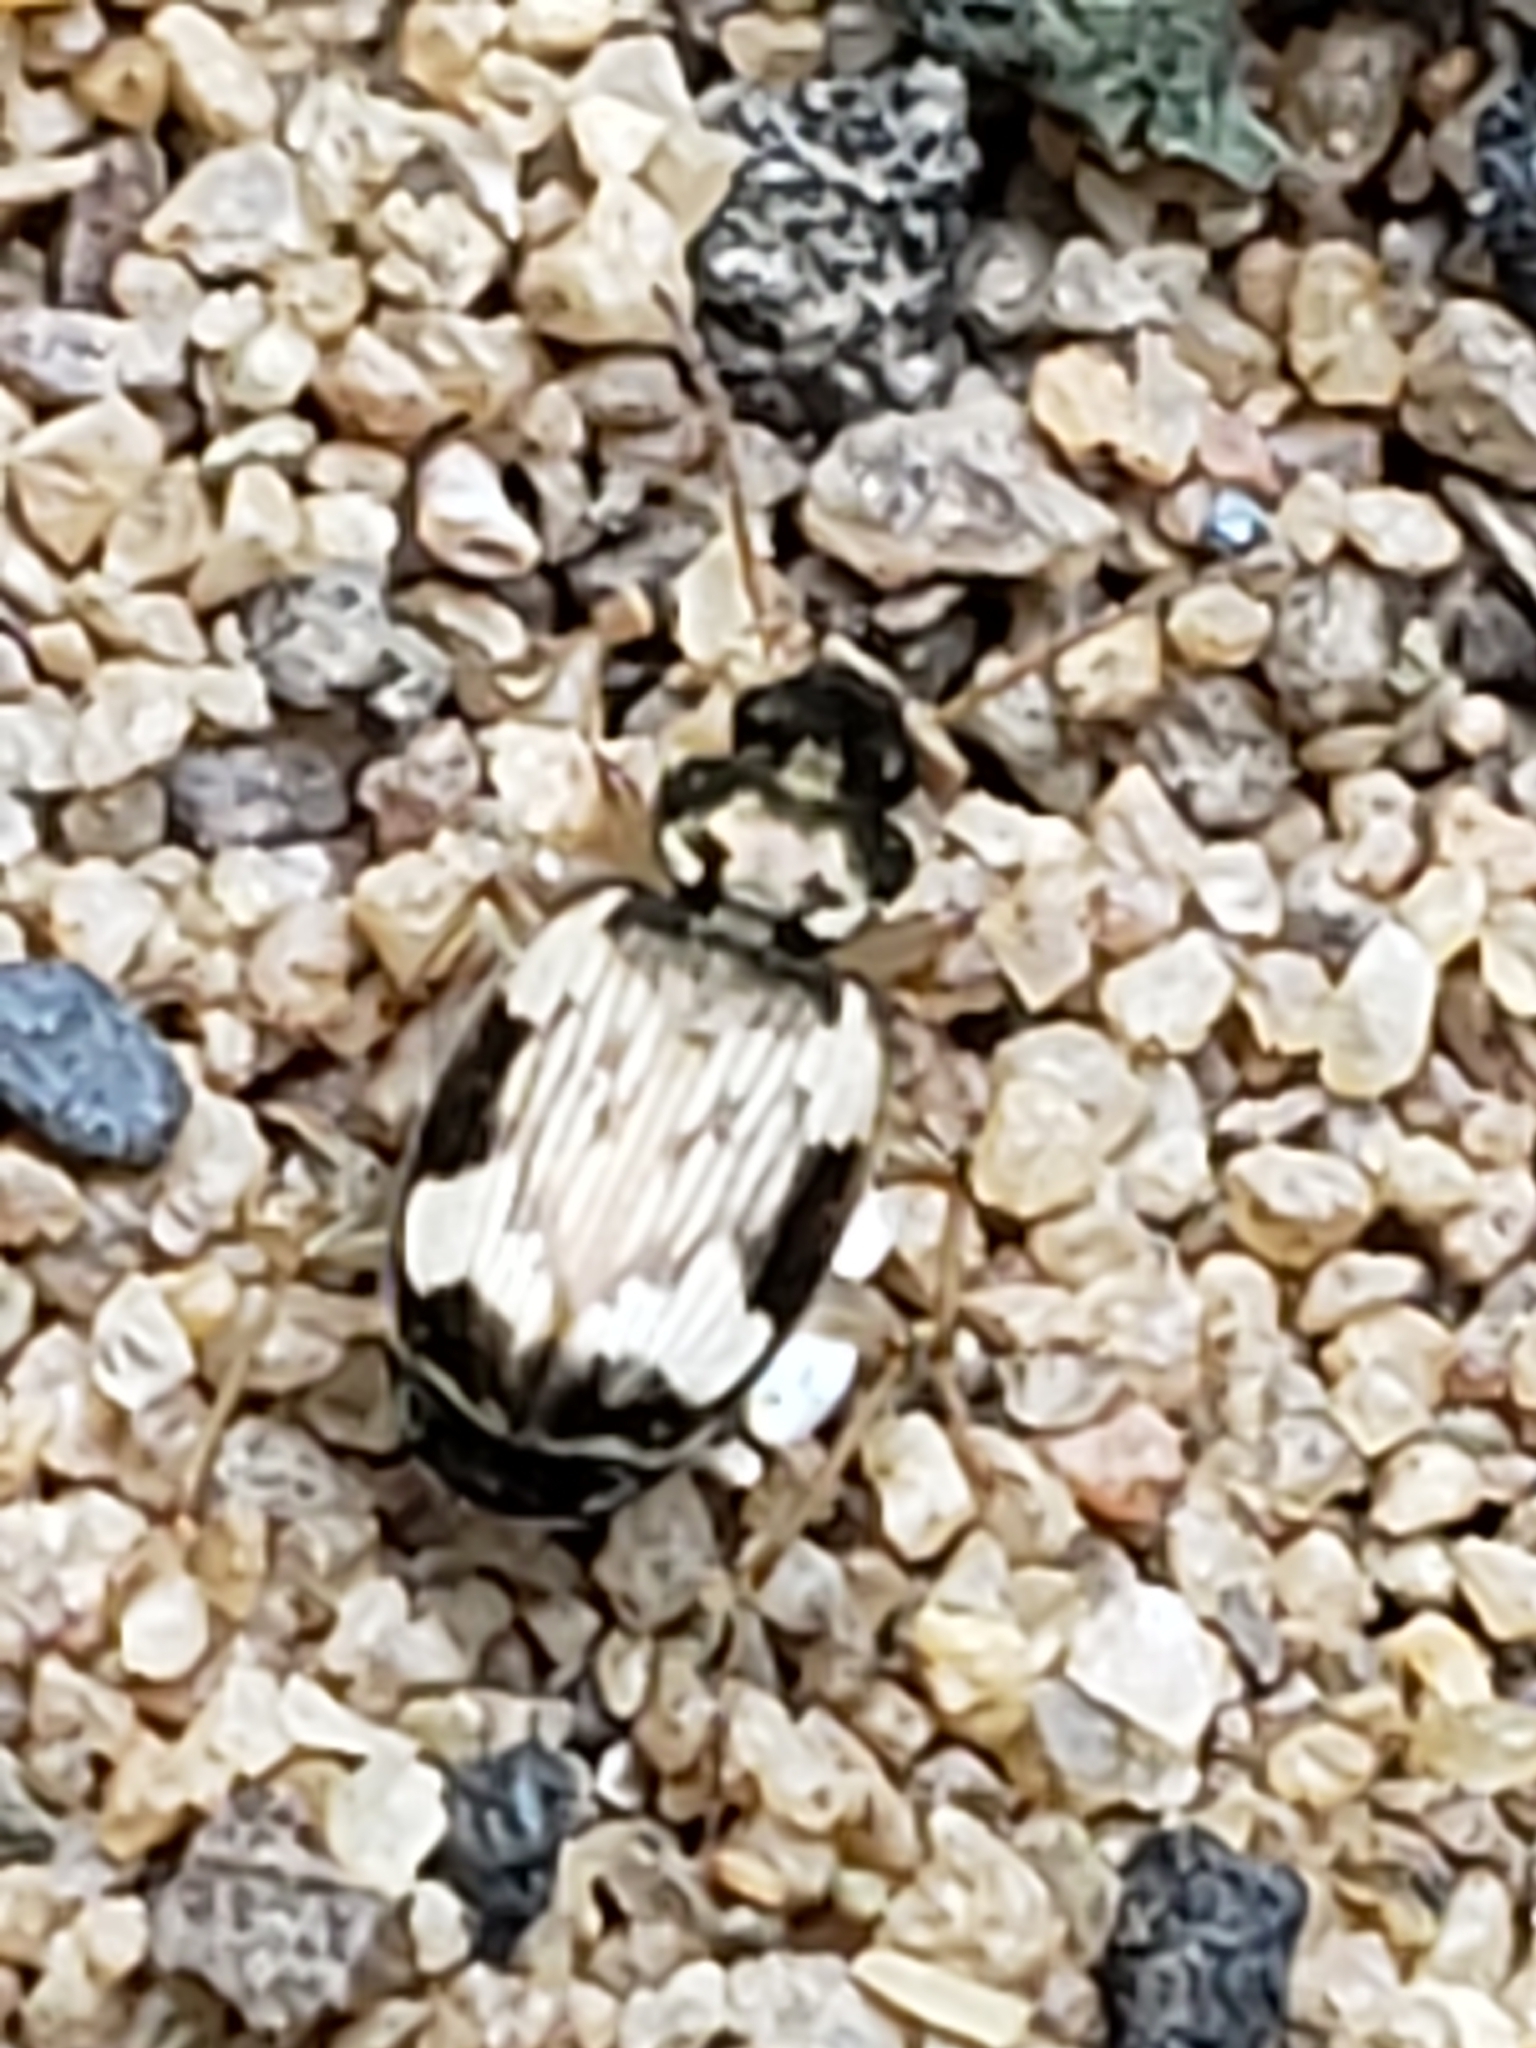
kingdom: Animalia
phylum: Arthropoda
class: Insecta
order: Coleoptera
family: Carabidae
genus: Tetragonoderus
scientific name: Tetragonoderus fasciatus
